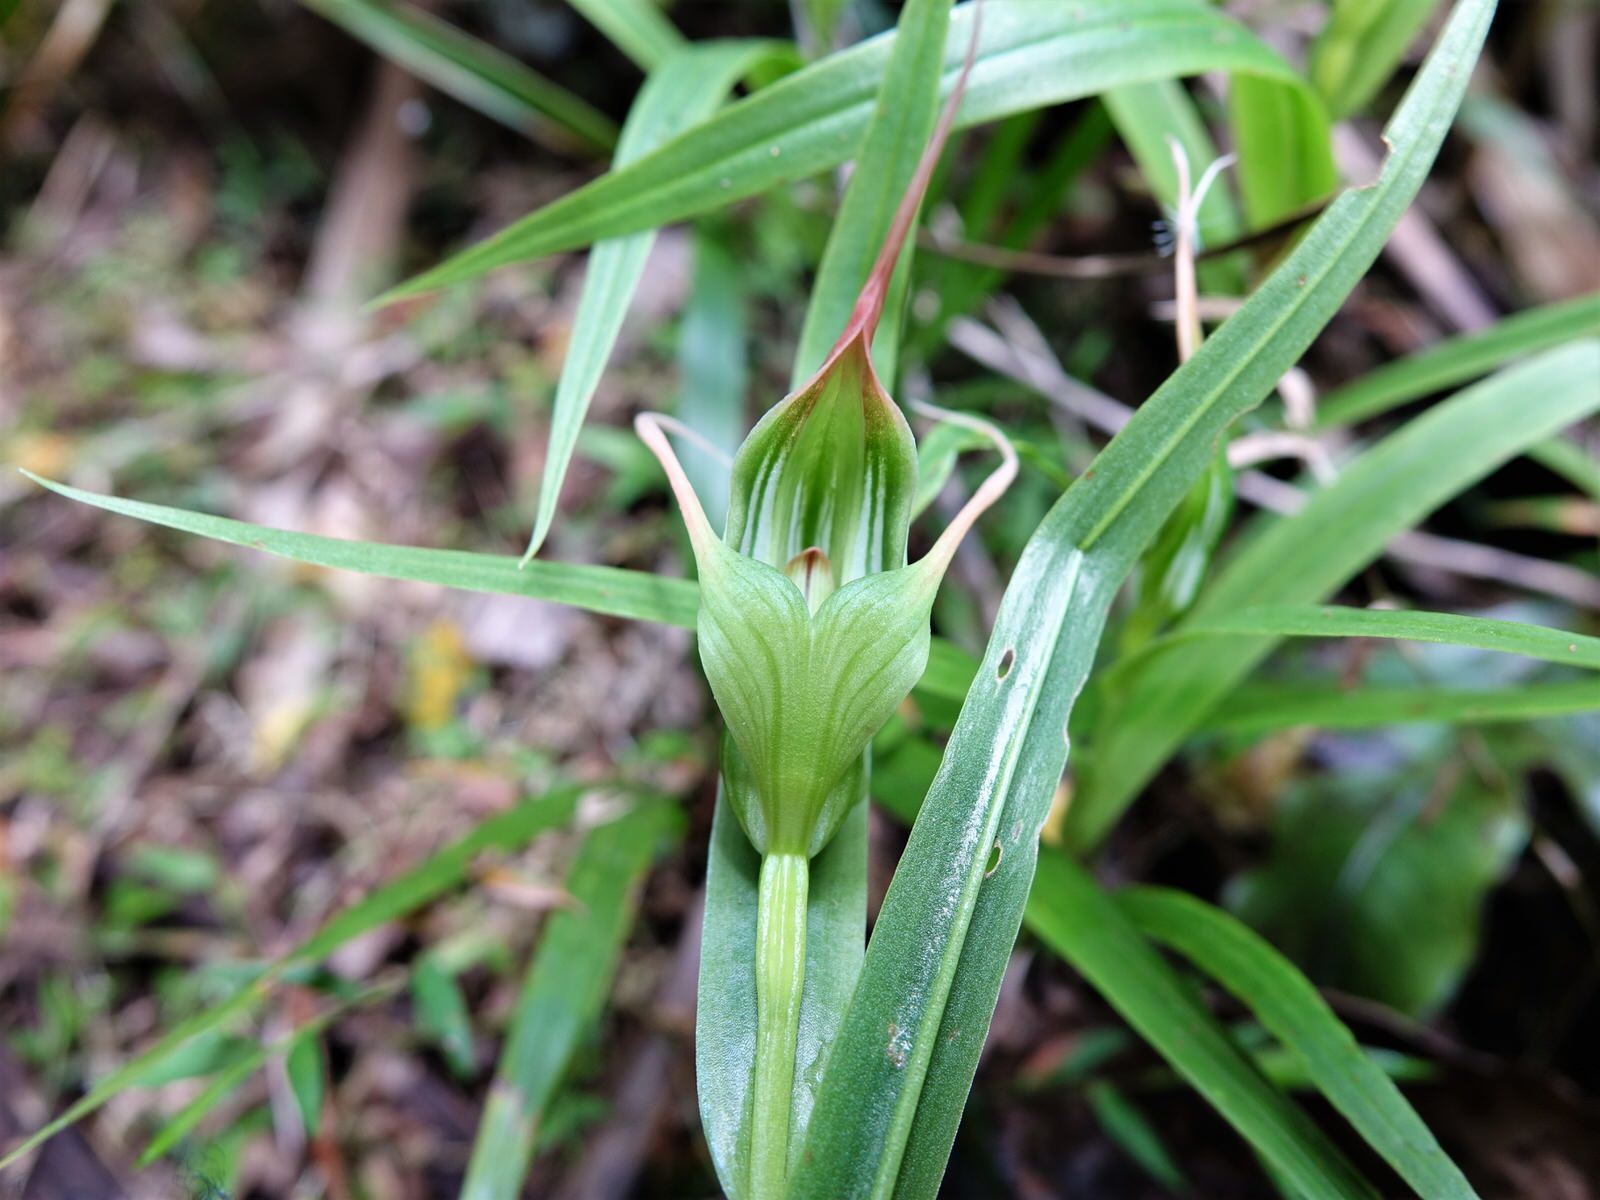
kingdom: Plantae
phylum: Tracheophyta
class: Liliopsida
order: Asparagales
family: Orchidaceae
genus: Pterostylis
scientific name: Pterostylis banksii
